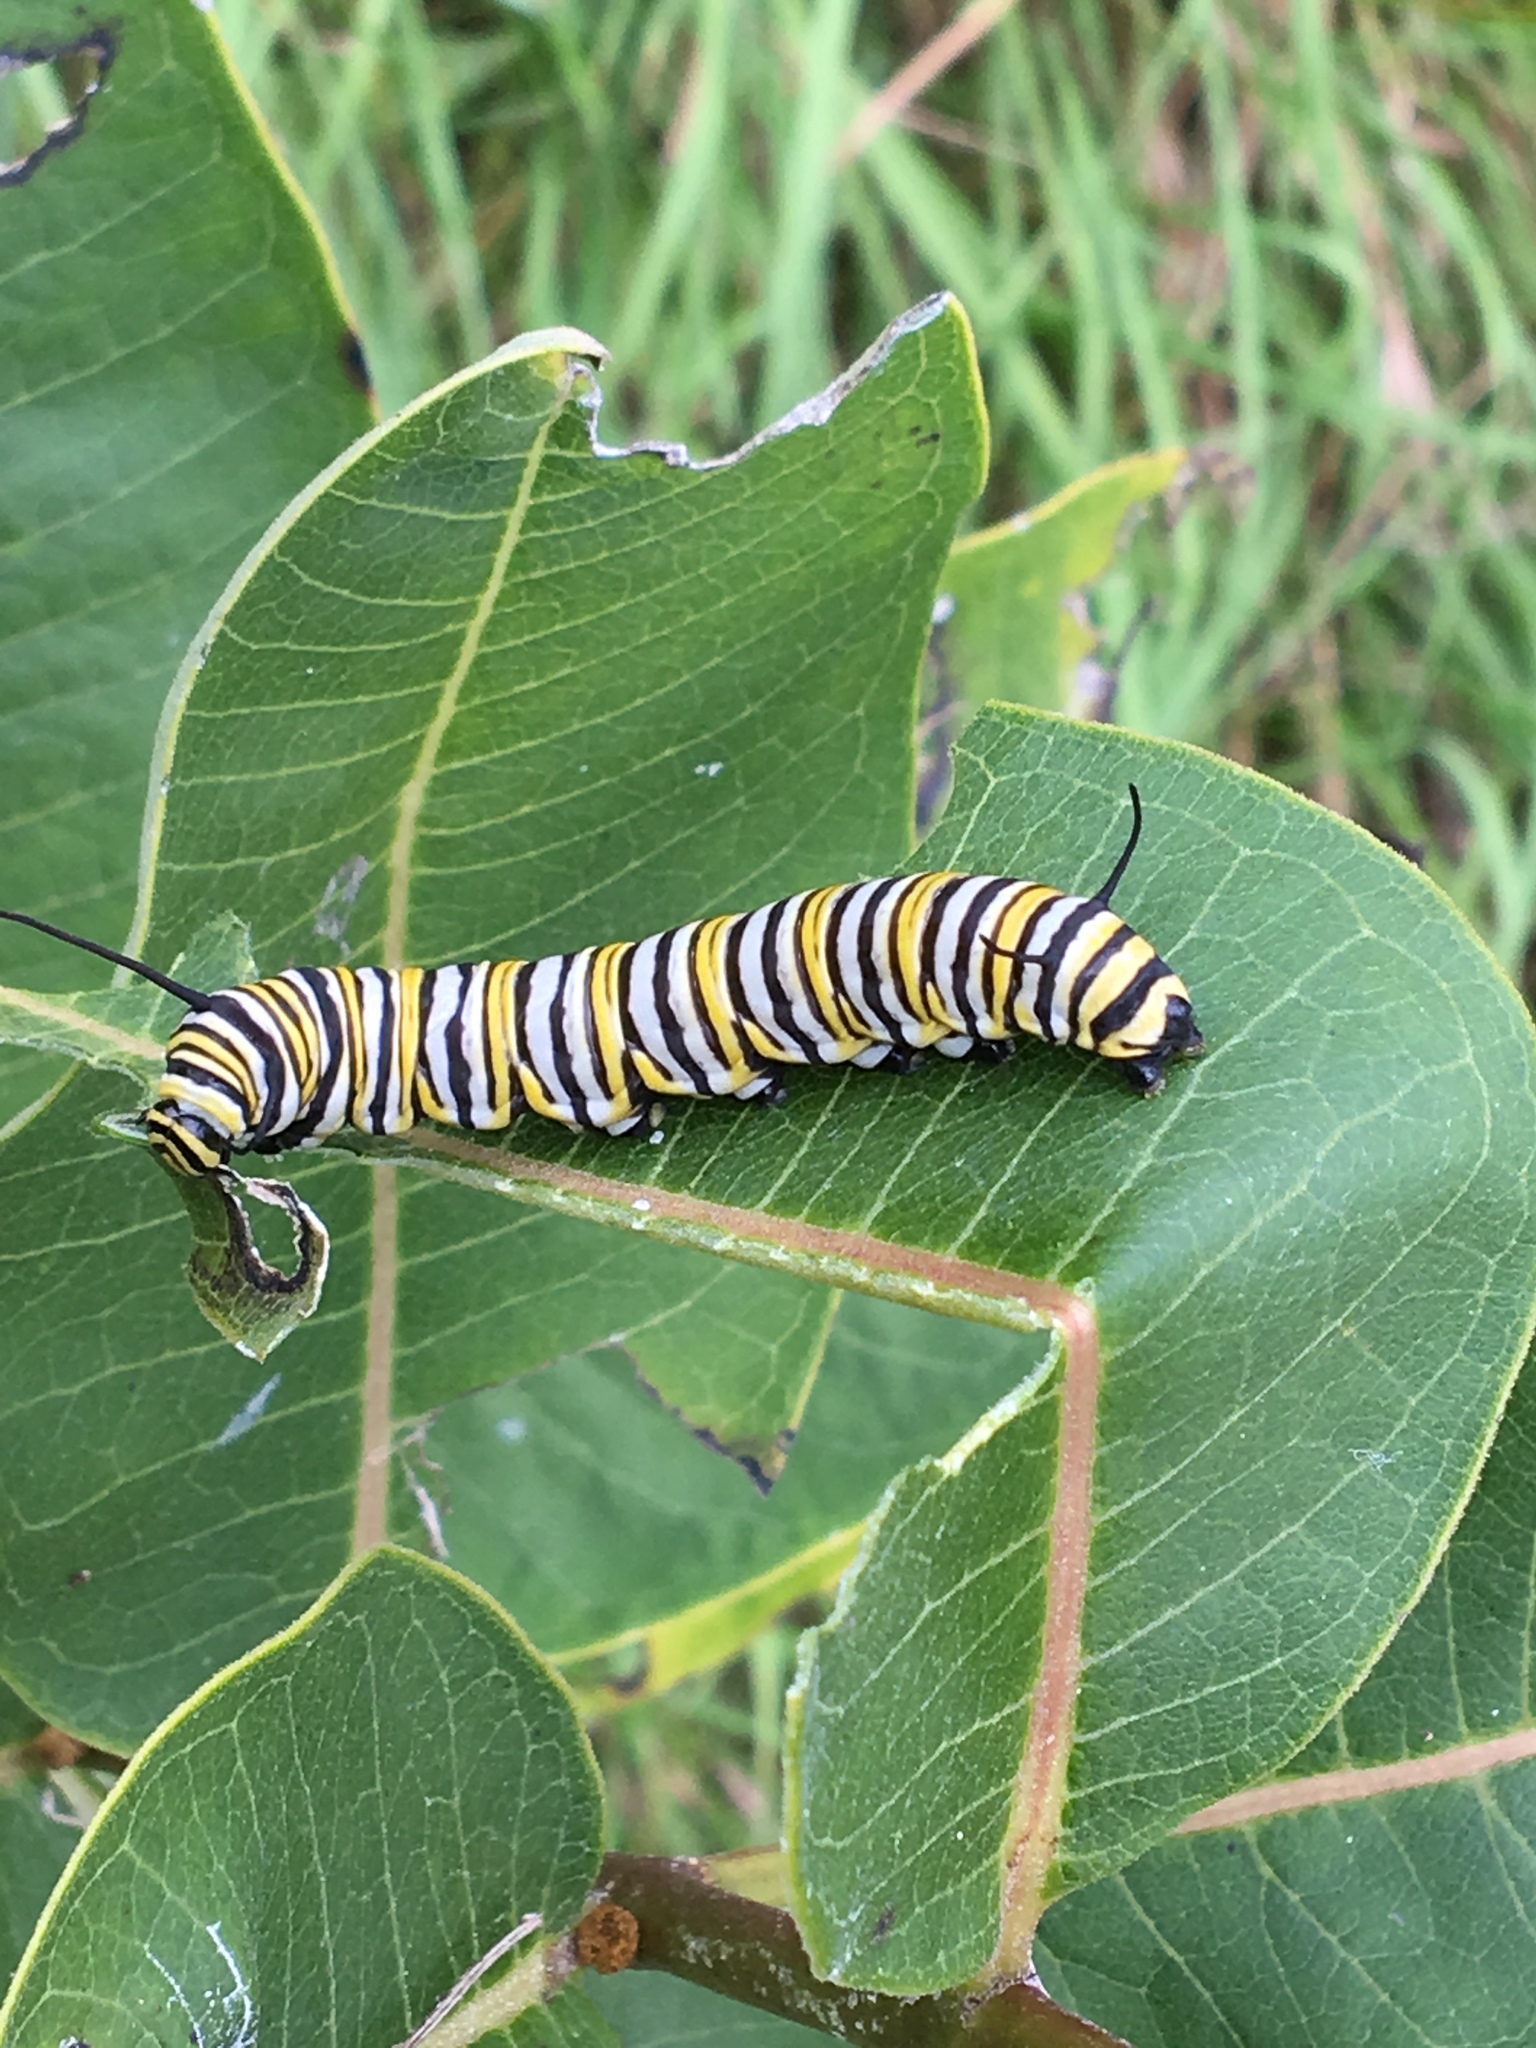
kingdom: Animalia
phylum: Arthropoda
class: Insecta
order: Lepidoptera
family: Nymphalidae
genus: Danaus
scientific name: Danaus plexippus
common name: Monarch
